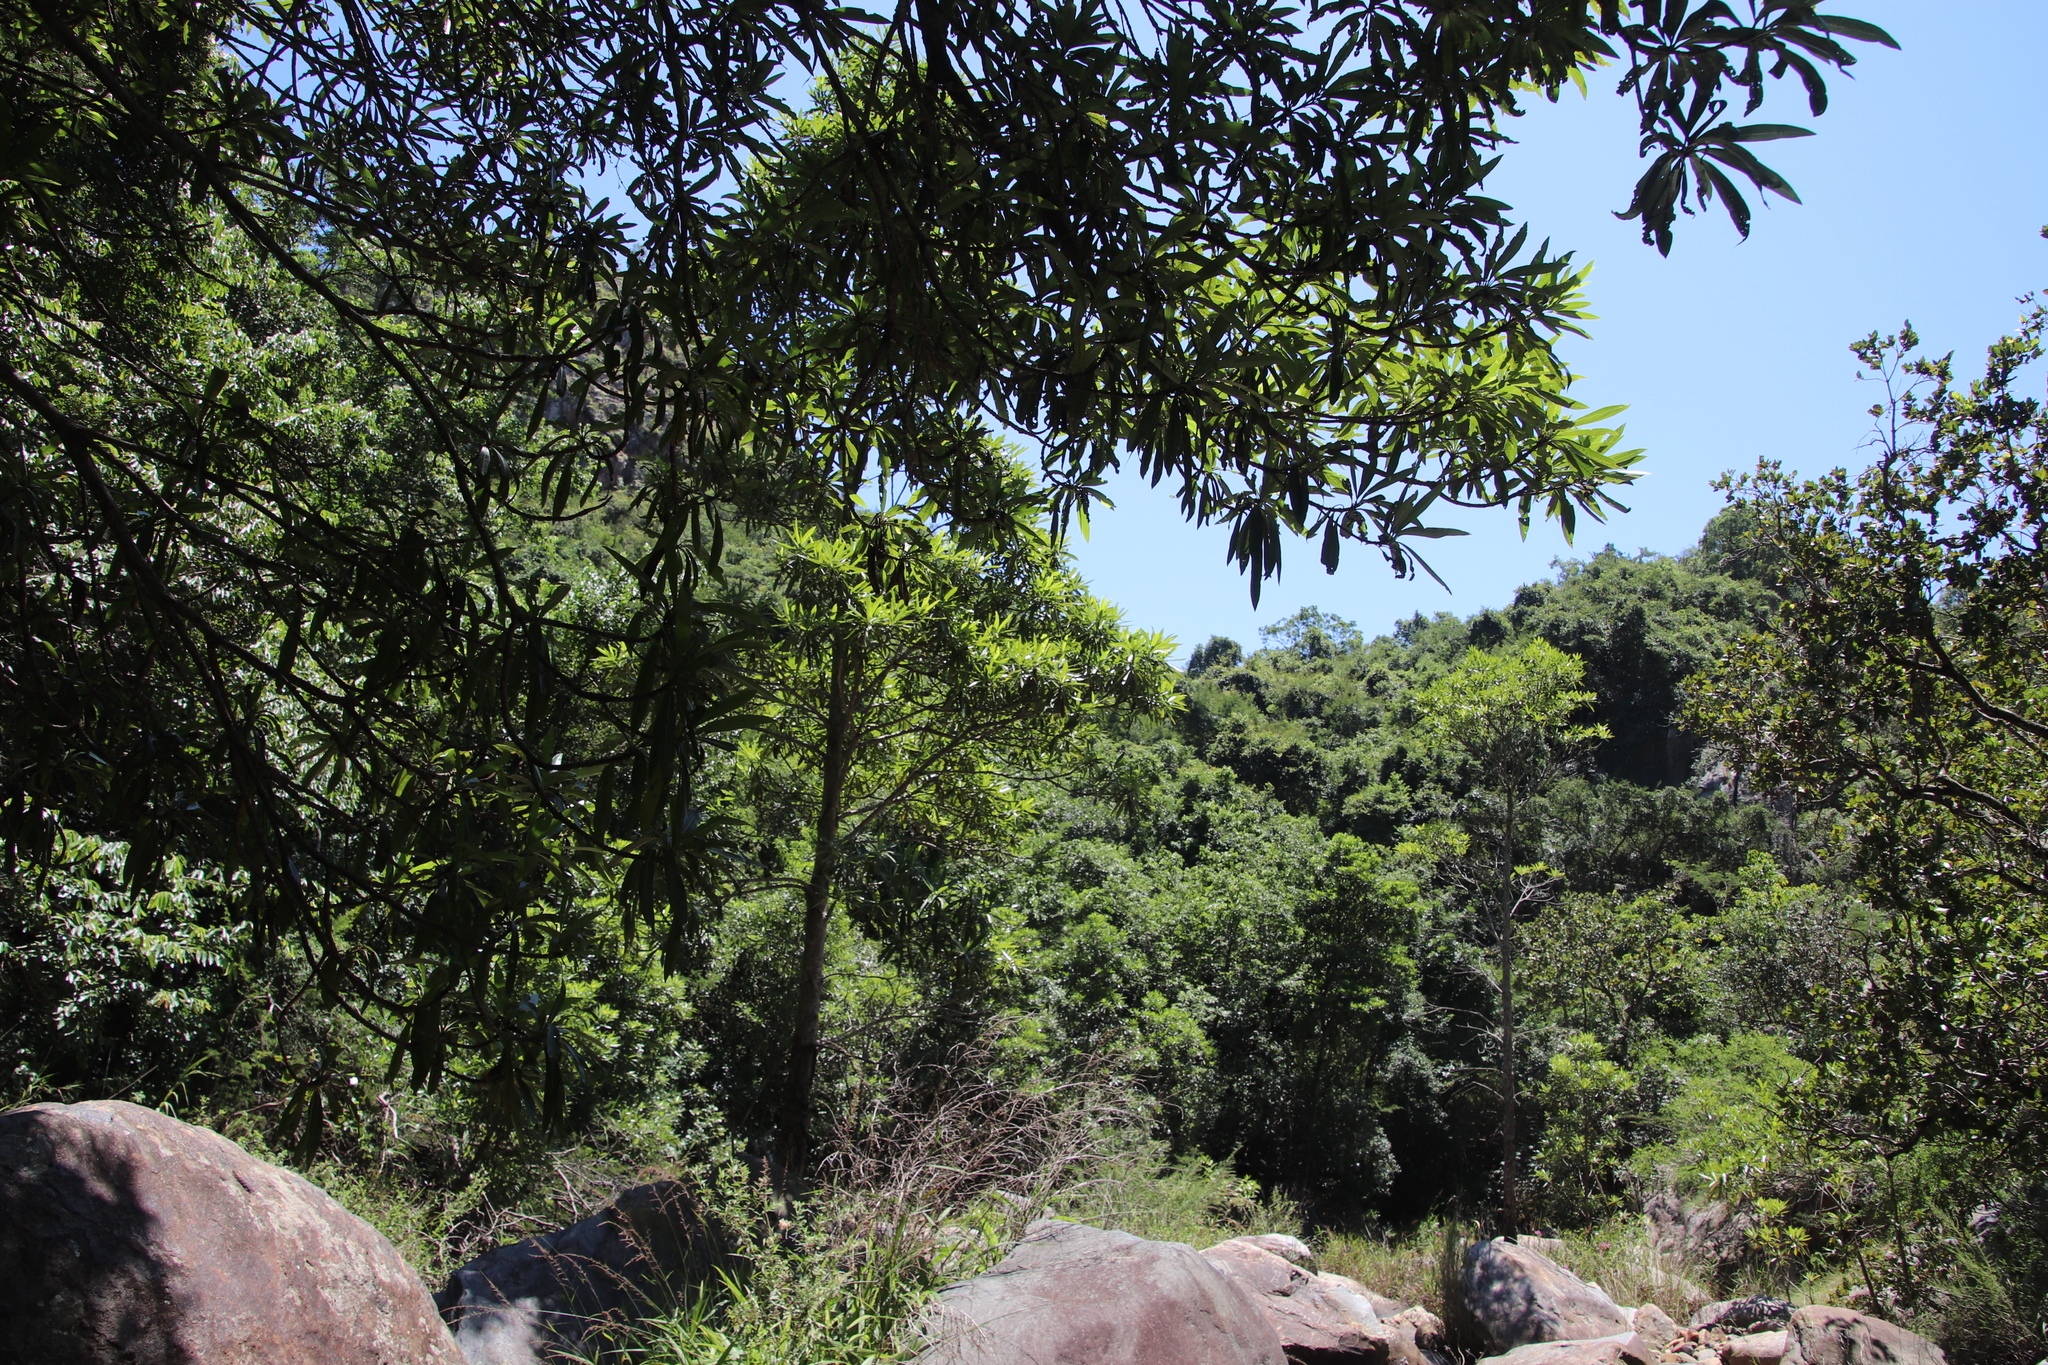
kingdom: Plantae
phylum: Tracheophyta
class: Magnoliopsida
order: Gentianales
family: Rubiaceae
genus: Breonadia
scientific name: Breonadia salicina
